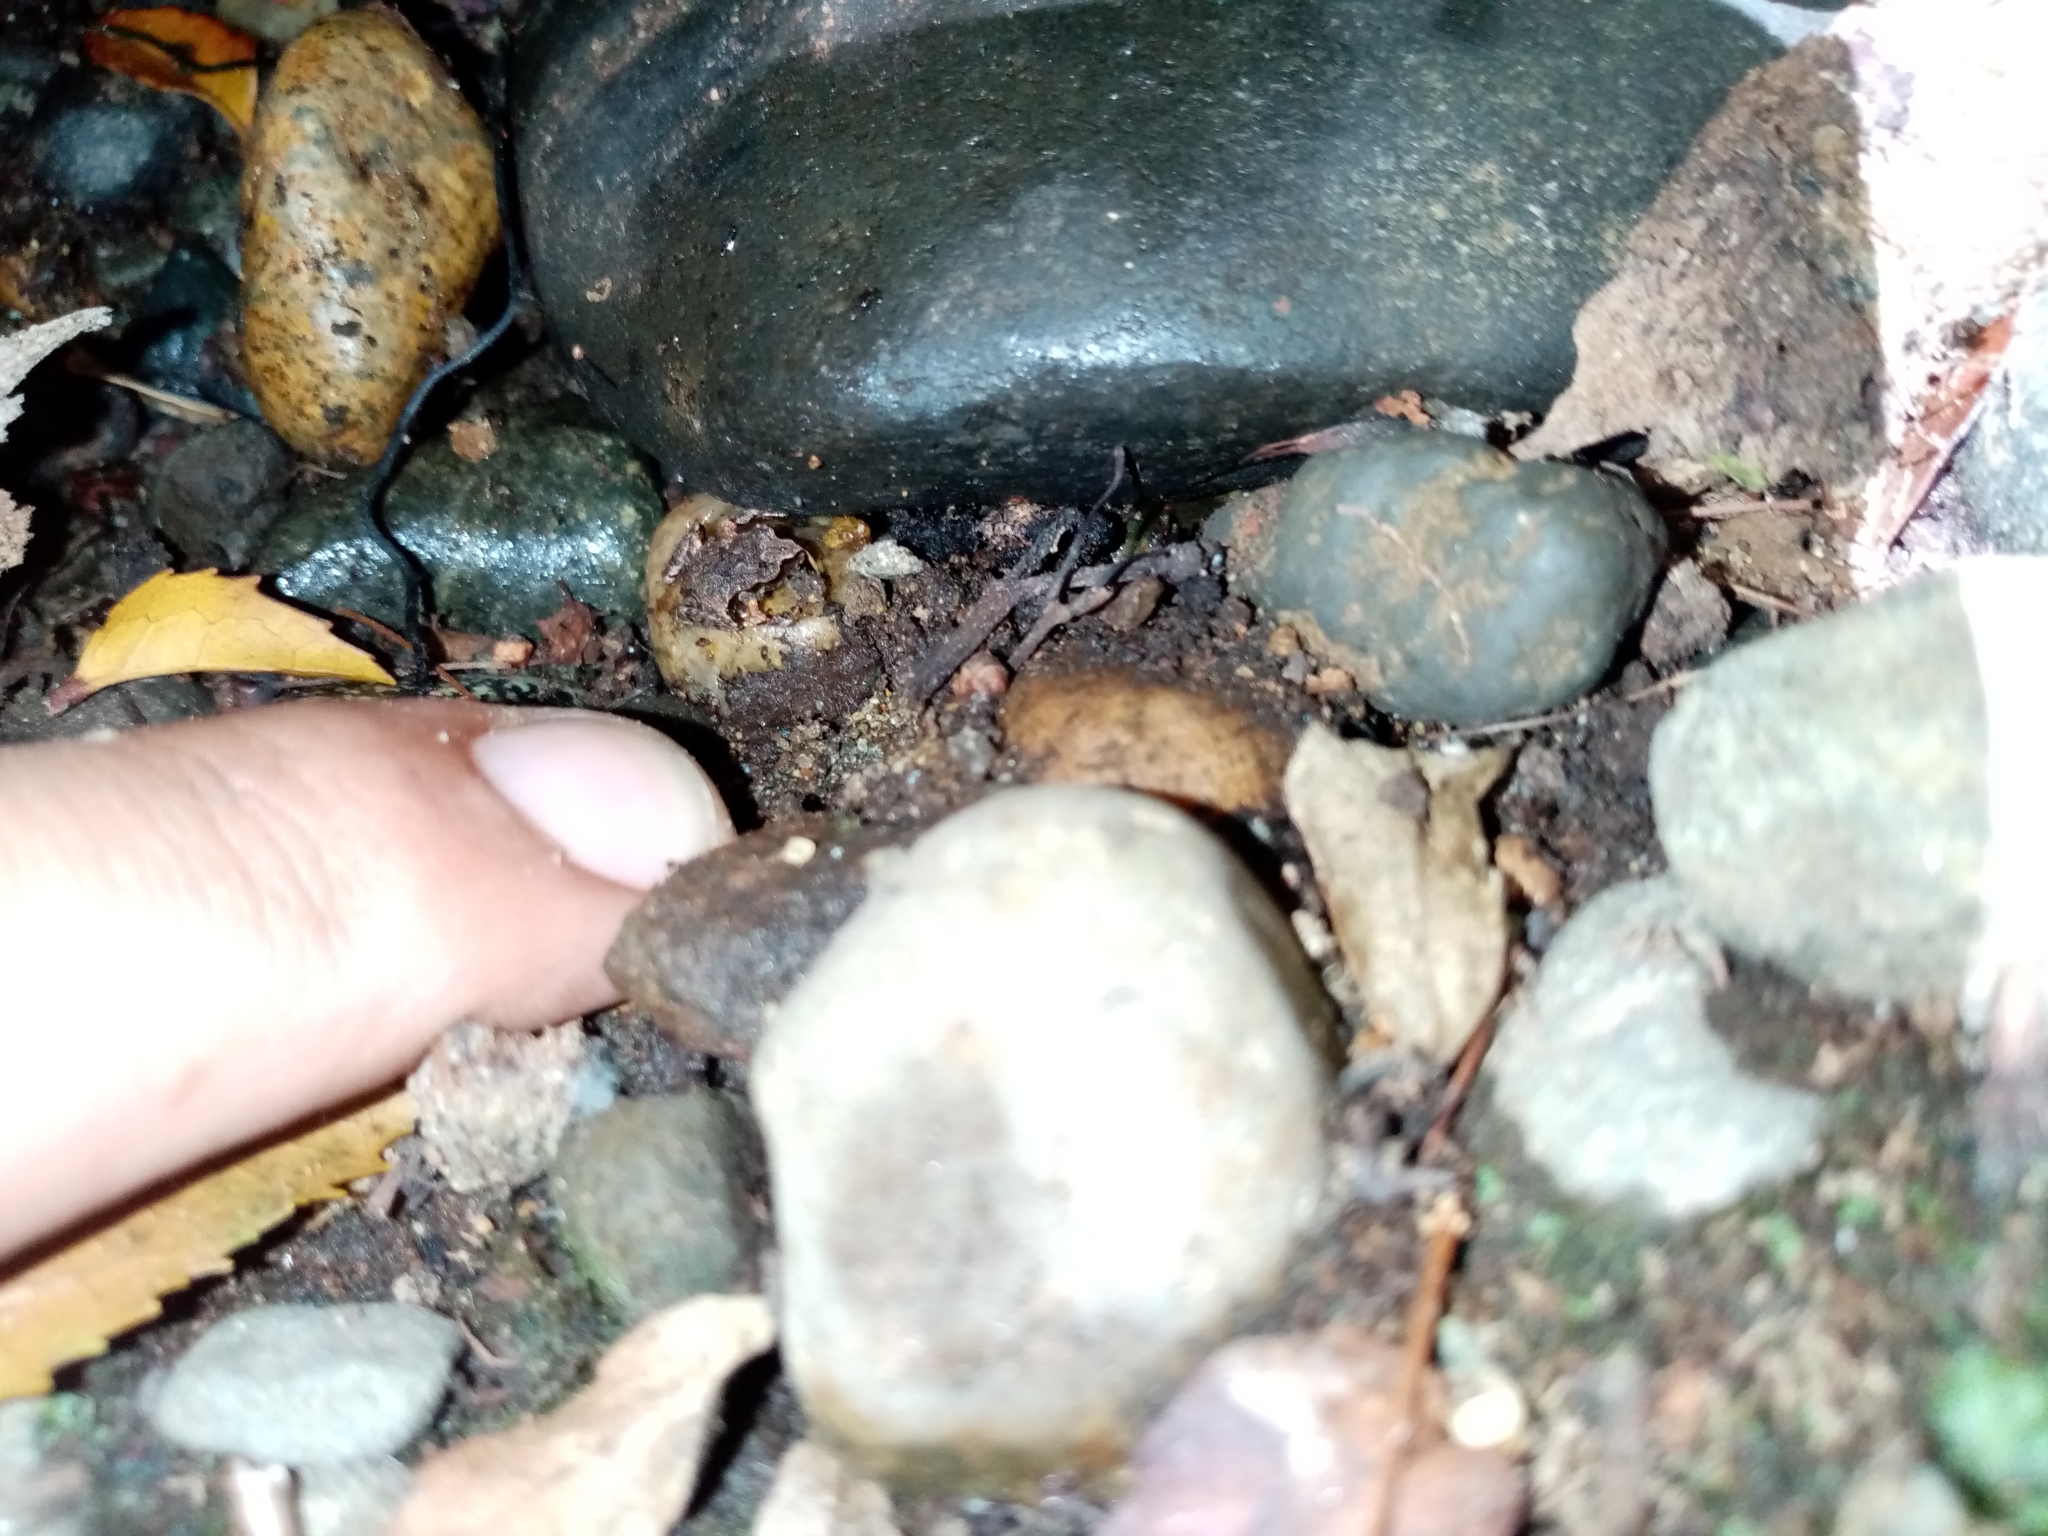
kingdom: Animalia
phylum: Chordata
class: Amphibia
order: Anura
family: Alsodidae
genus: Eupsophus
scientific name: Eupsophus calcaratus
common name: Chiloe island ground frog
